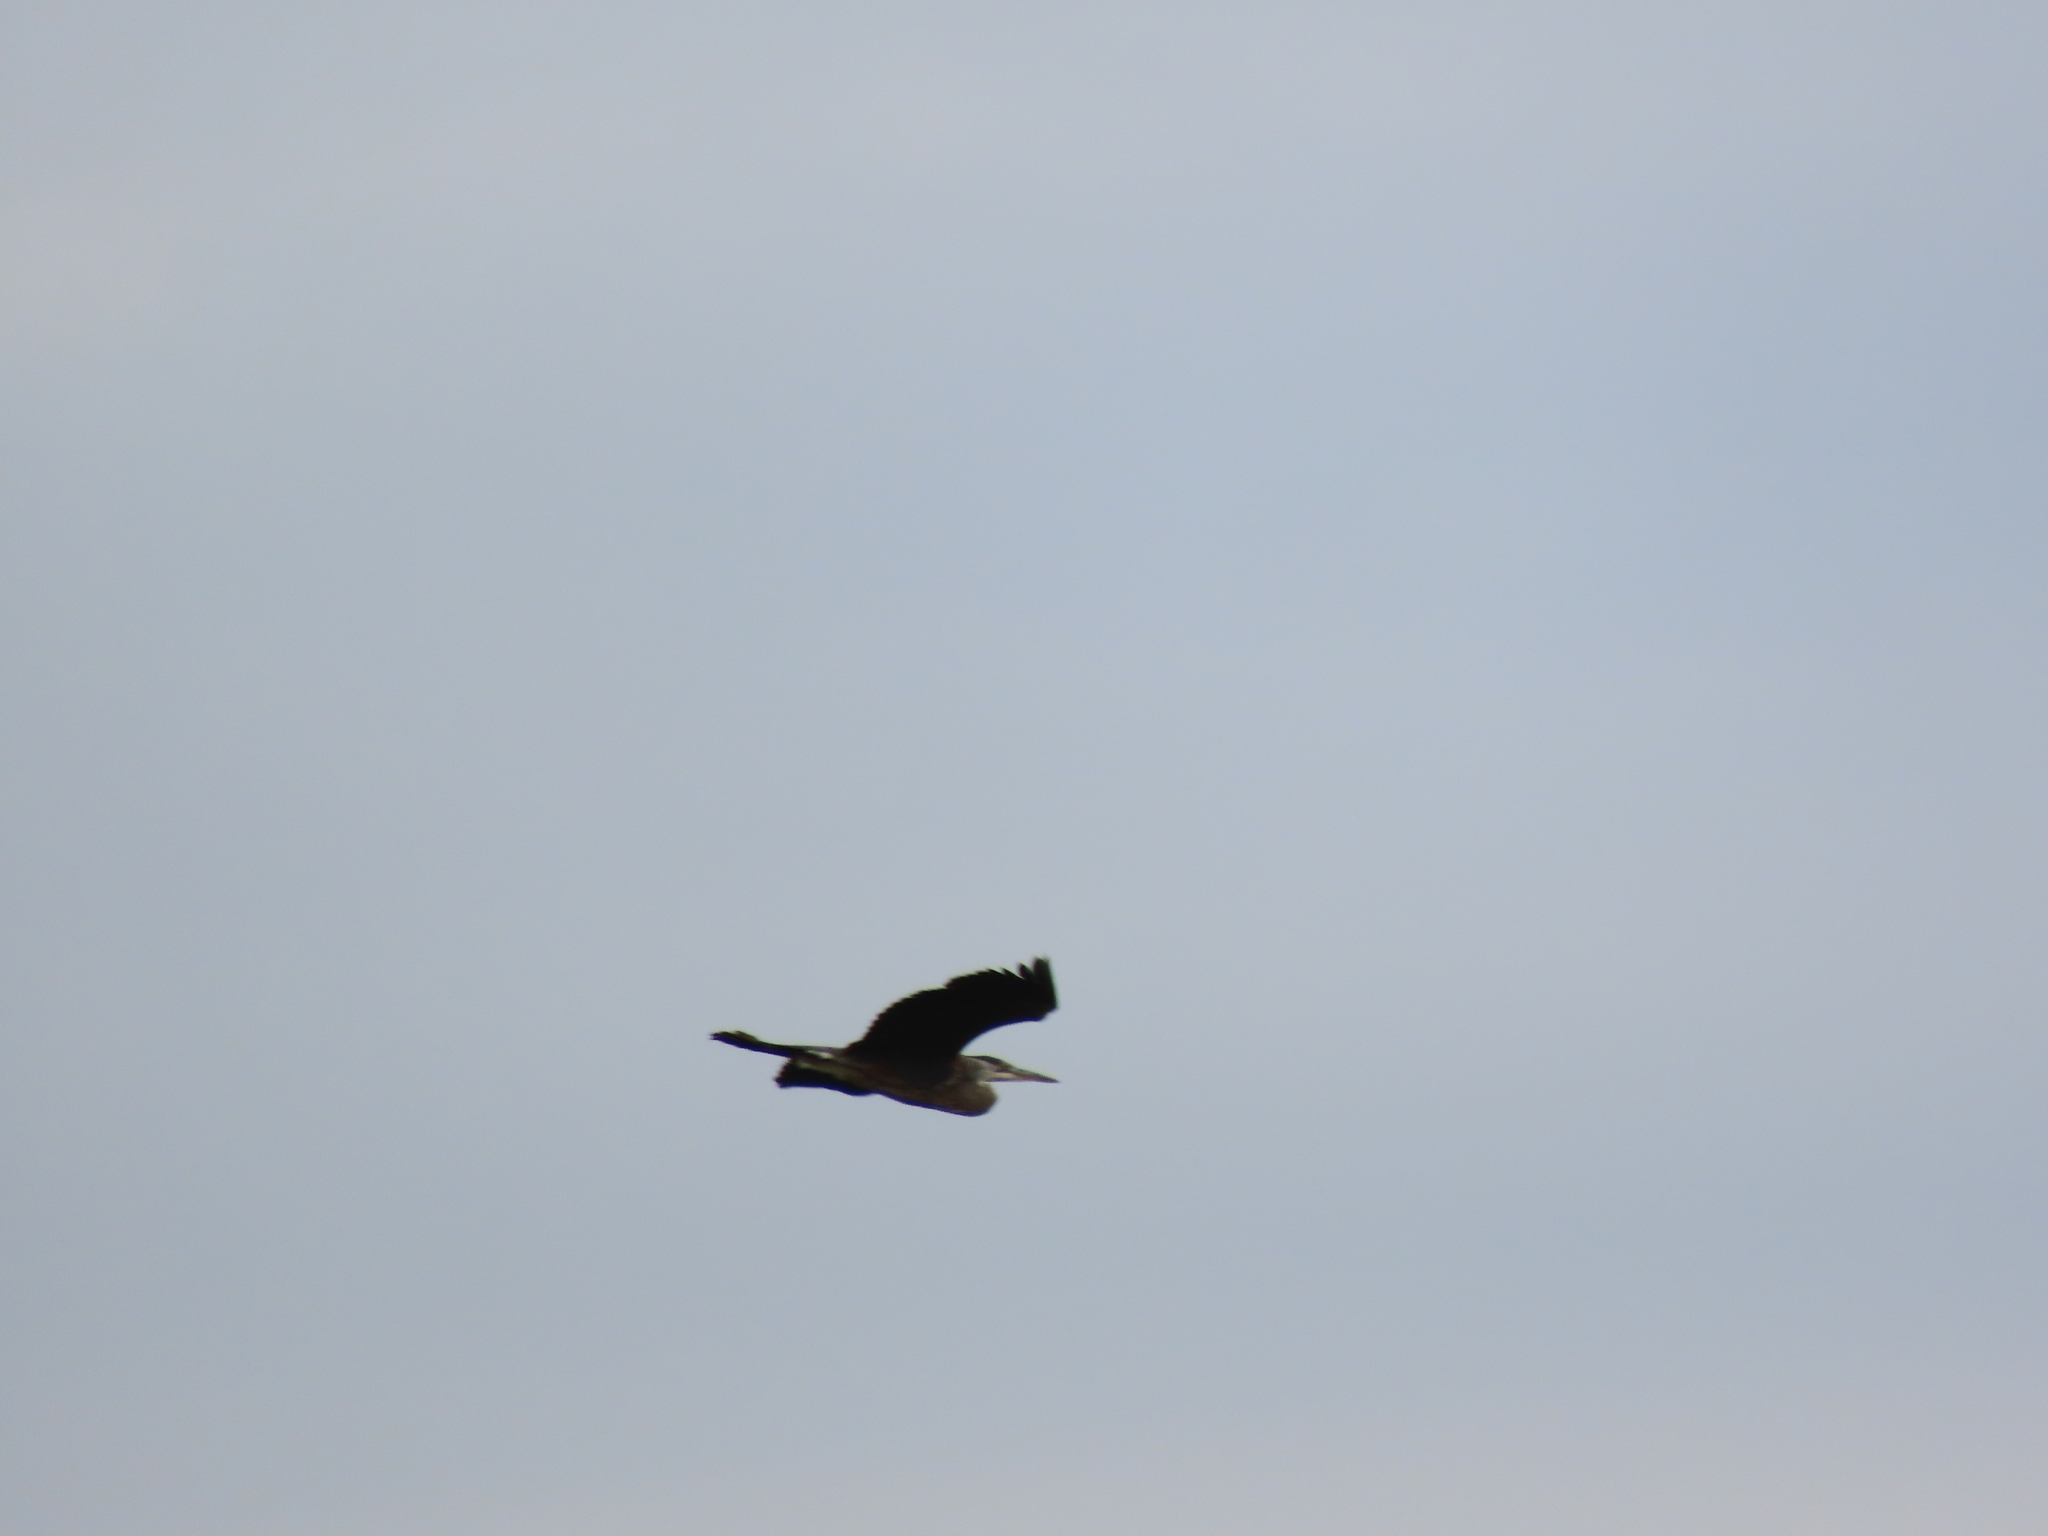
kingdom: Animalia
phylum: Chordata
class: Aves
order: Pelecaniformes
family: Ardeidae
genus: Ardea
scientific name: Ardea herodias
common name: Great blue heron
